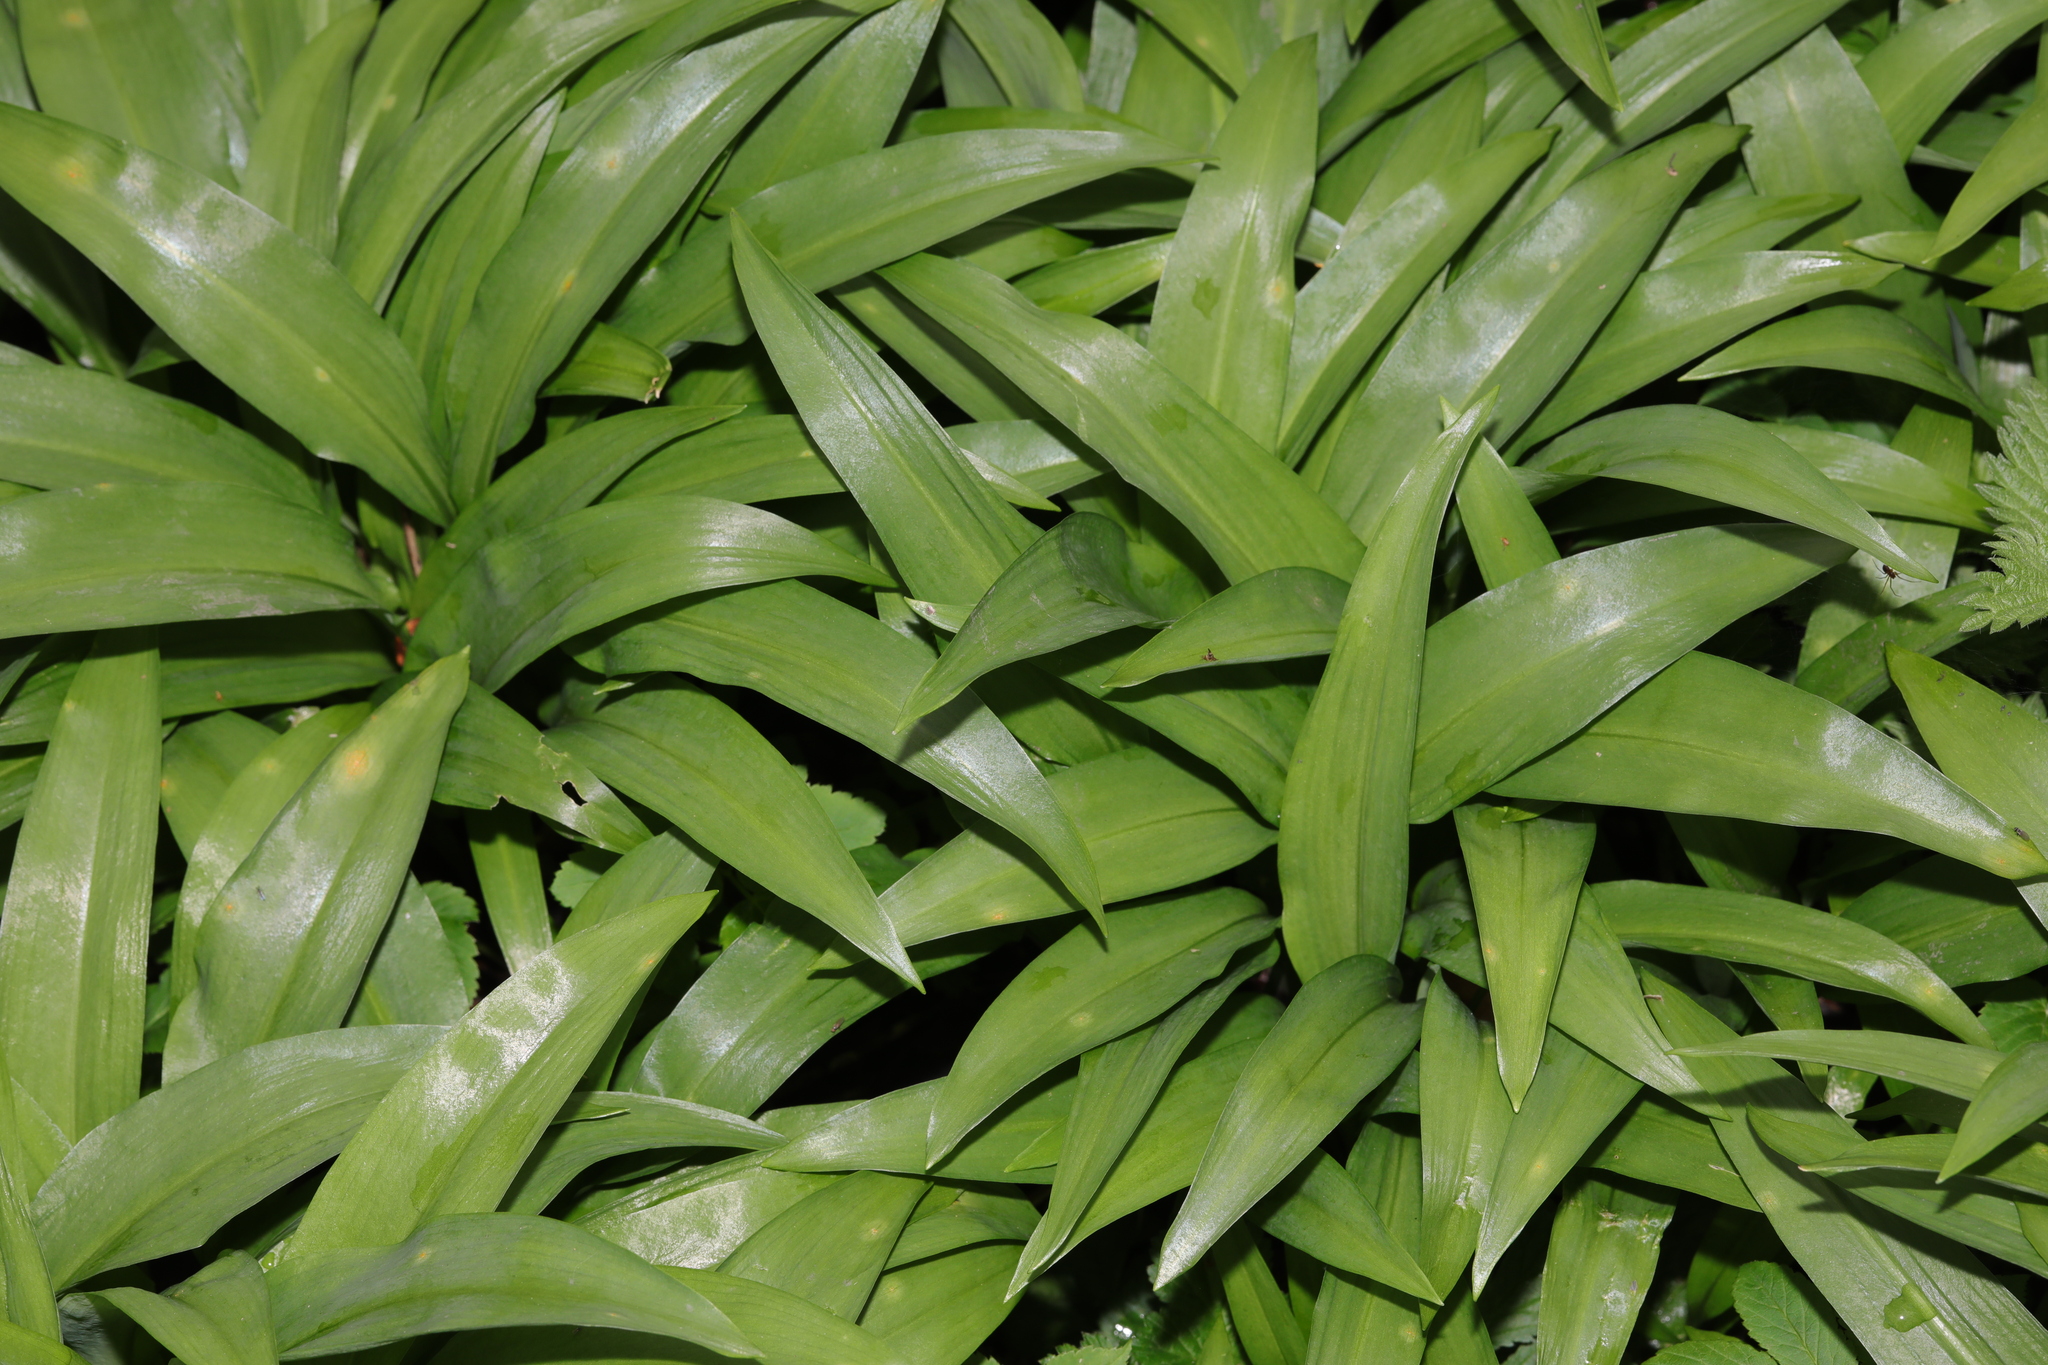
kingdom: Plantae
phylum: Tracheophyta
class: Liliopsida
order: Asparagales
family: Amaryllidaceae
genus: Allium
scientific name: Allium ursinum
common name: Ramsons
